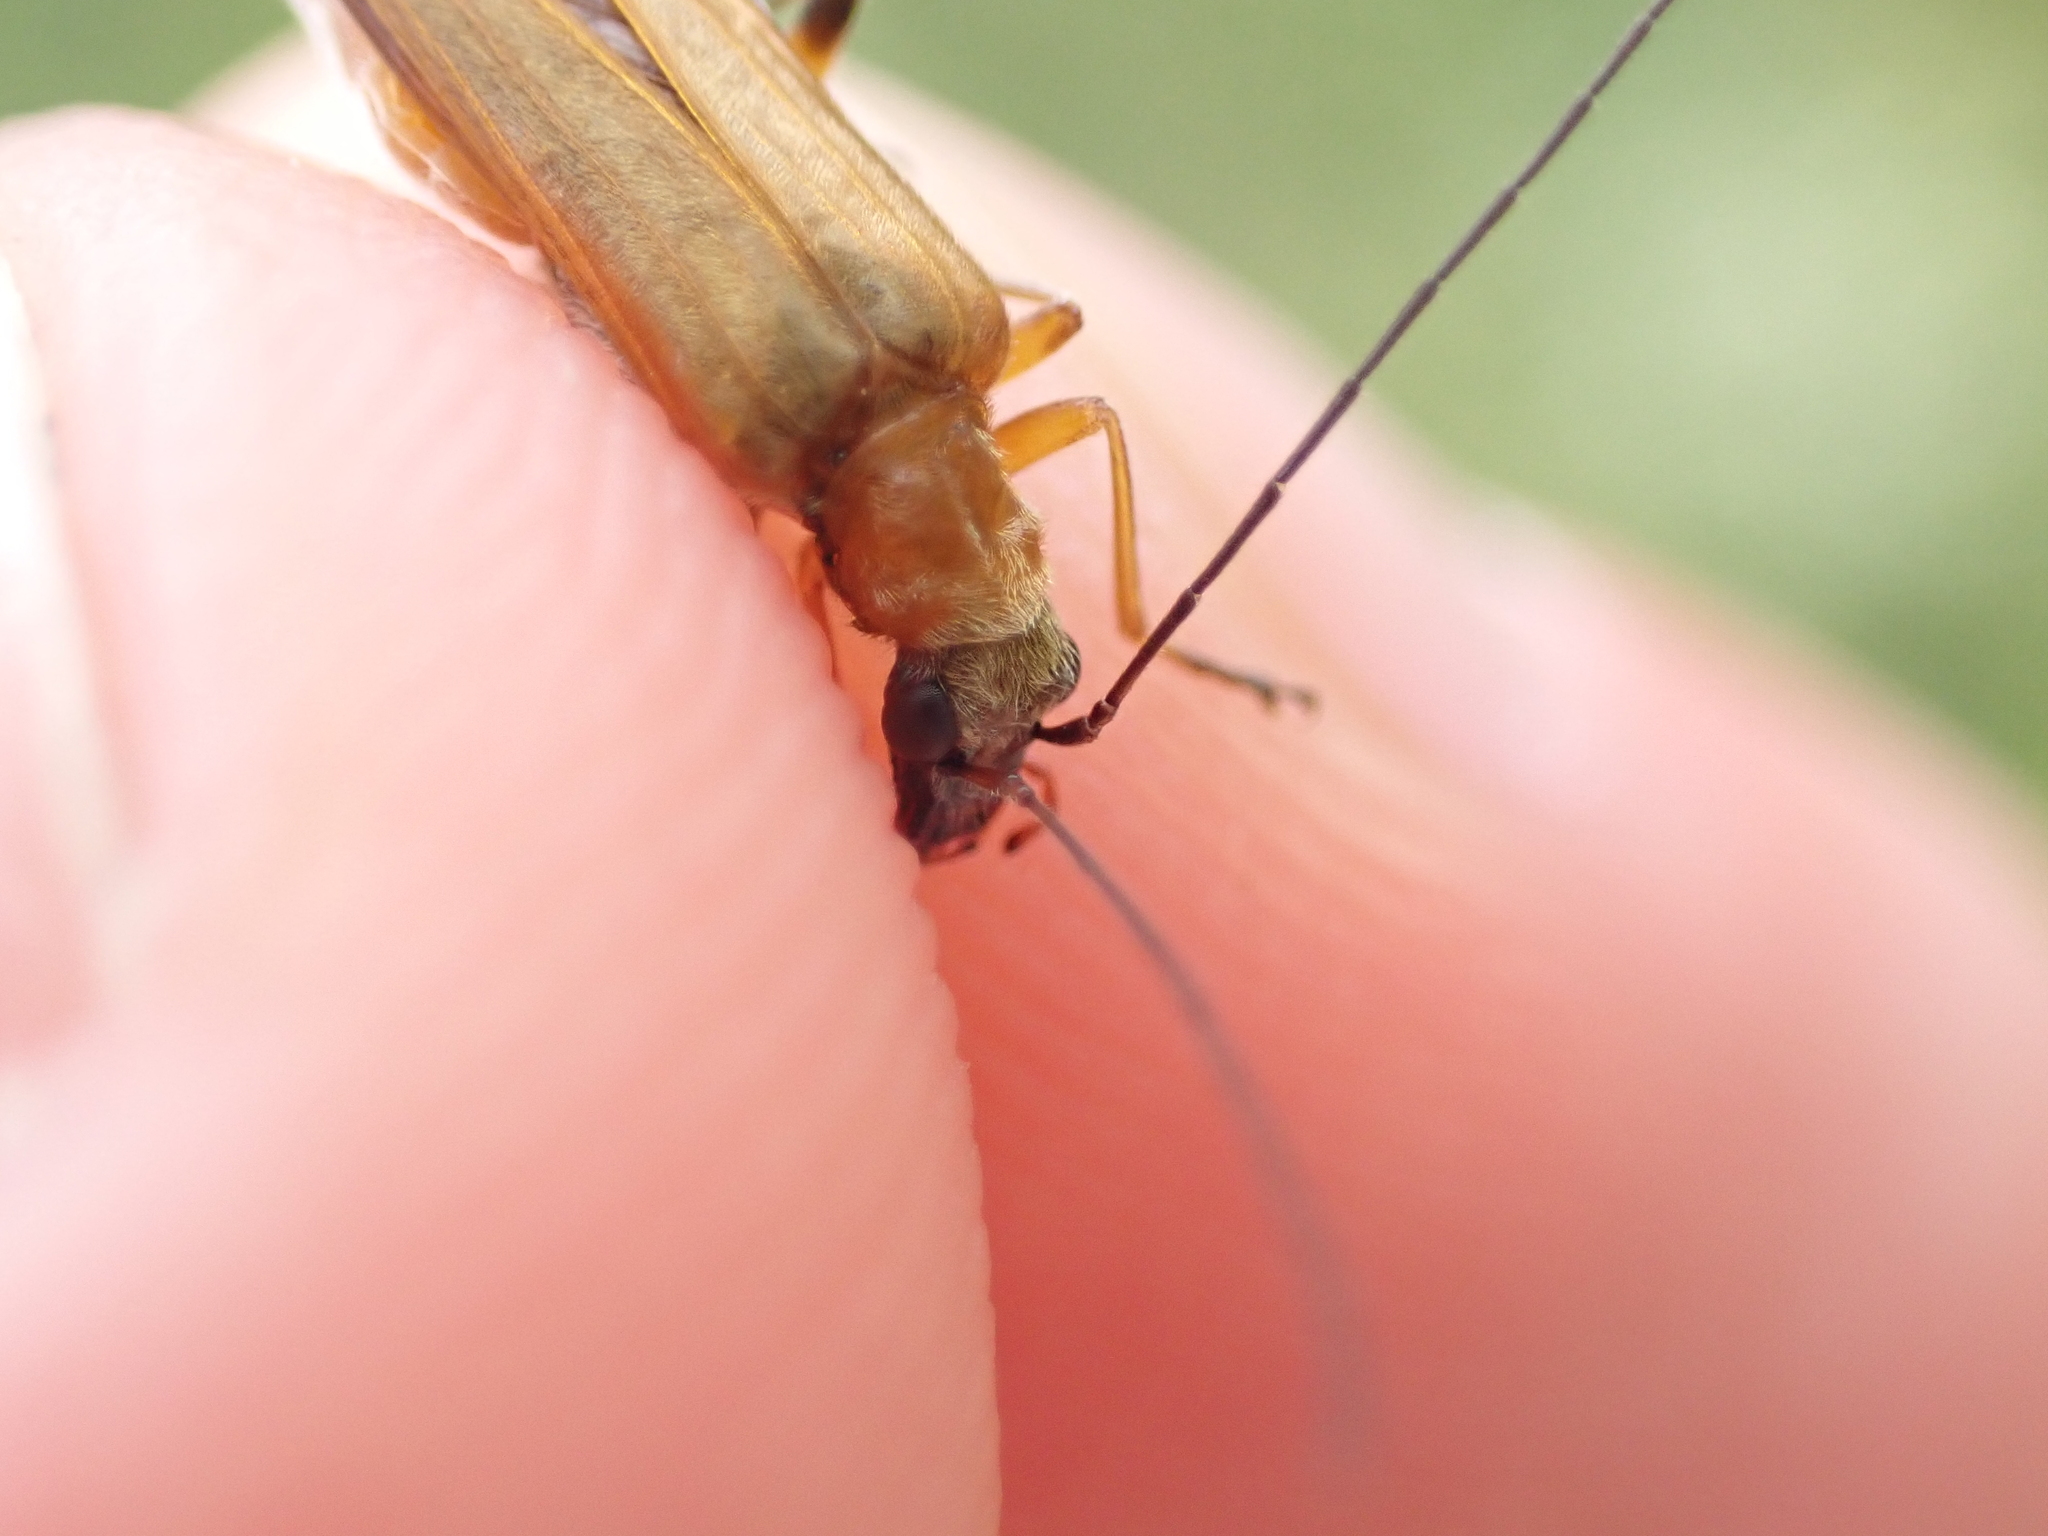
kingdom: Animalia
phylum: Arthropoda
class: Insecta
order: Coleoptera
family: Oedemeridae
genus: Oedemera
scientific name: Oedemera podagrariae
